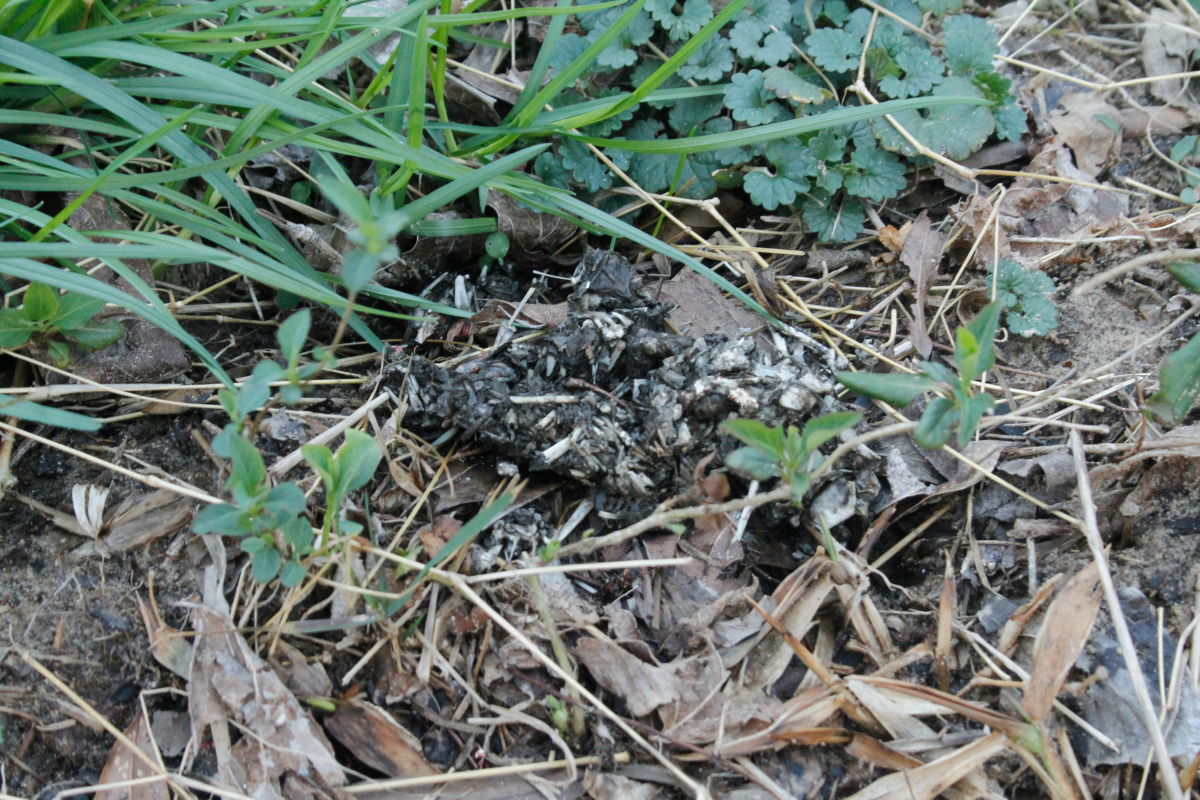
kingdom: Animalia
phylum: Chordata
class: Mammalia
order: Carnivora
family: Mustelidae
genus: Lontra
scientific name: Lontra canadensis
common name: North american river otter
